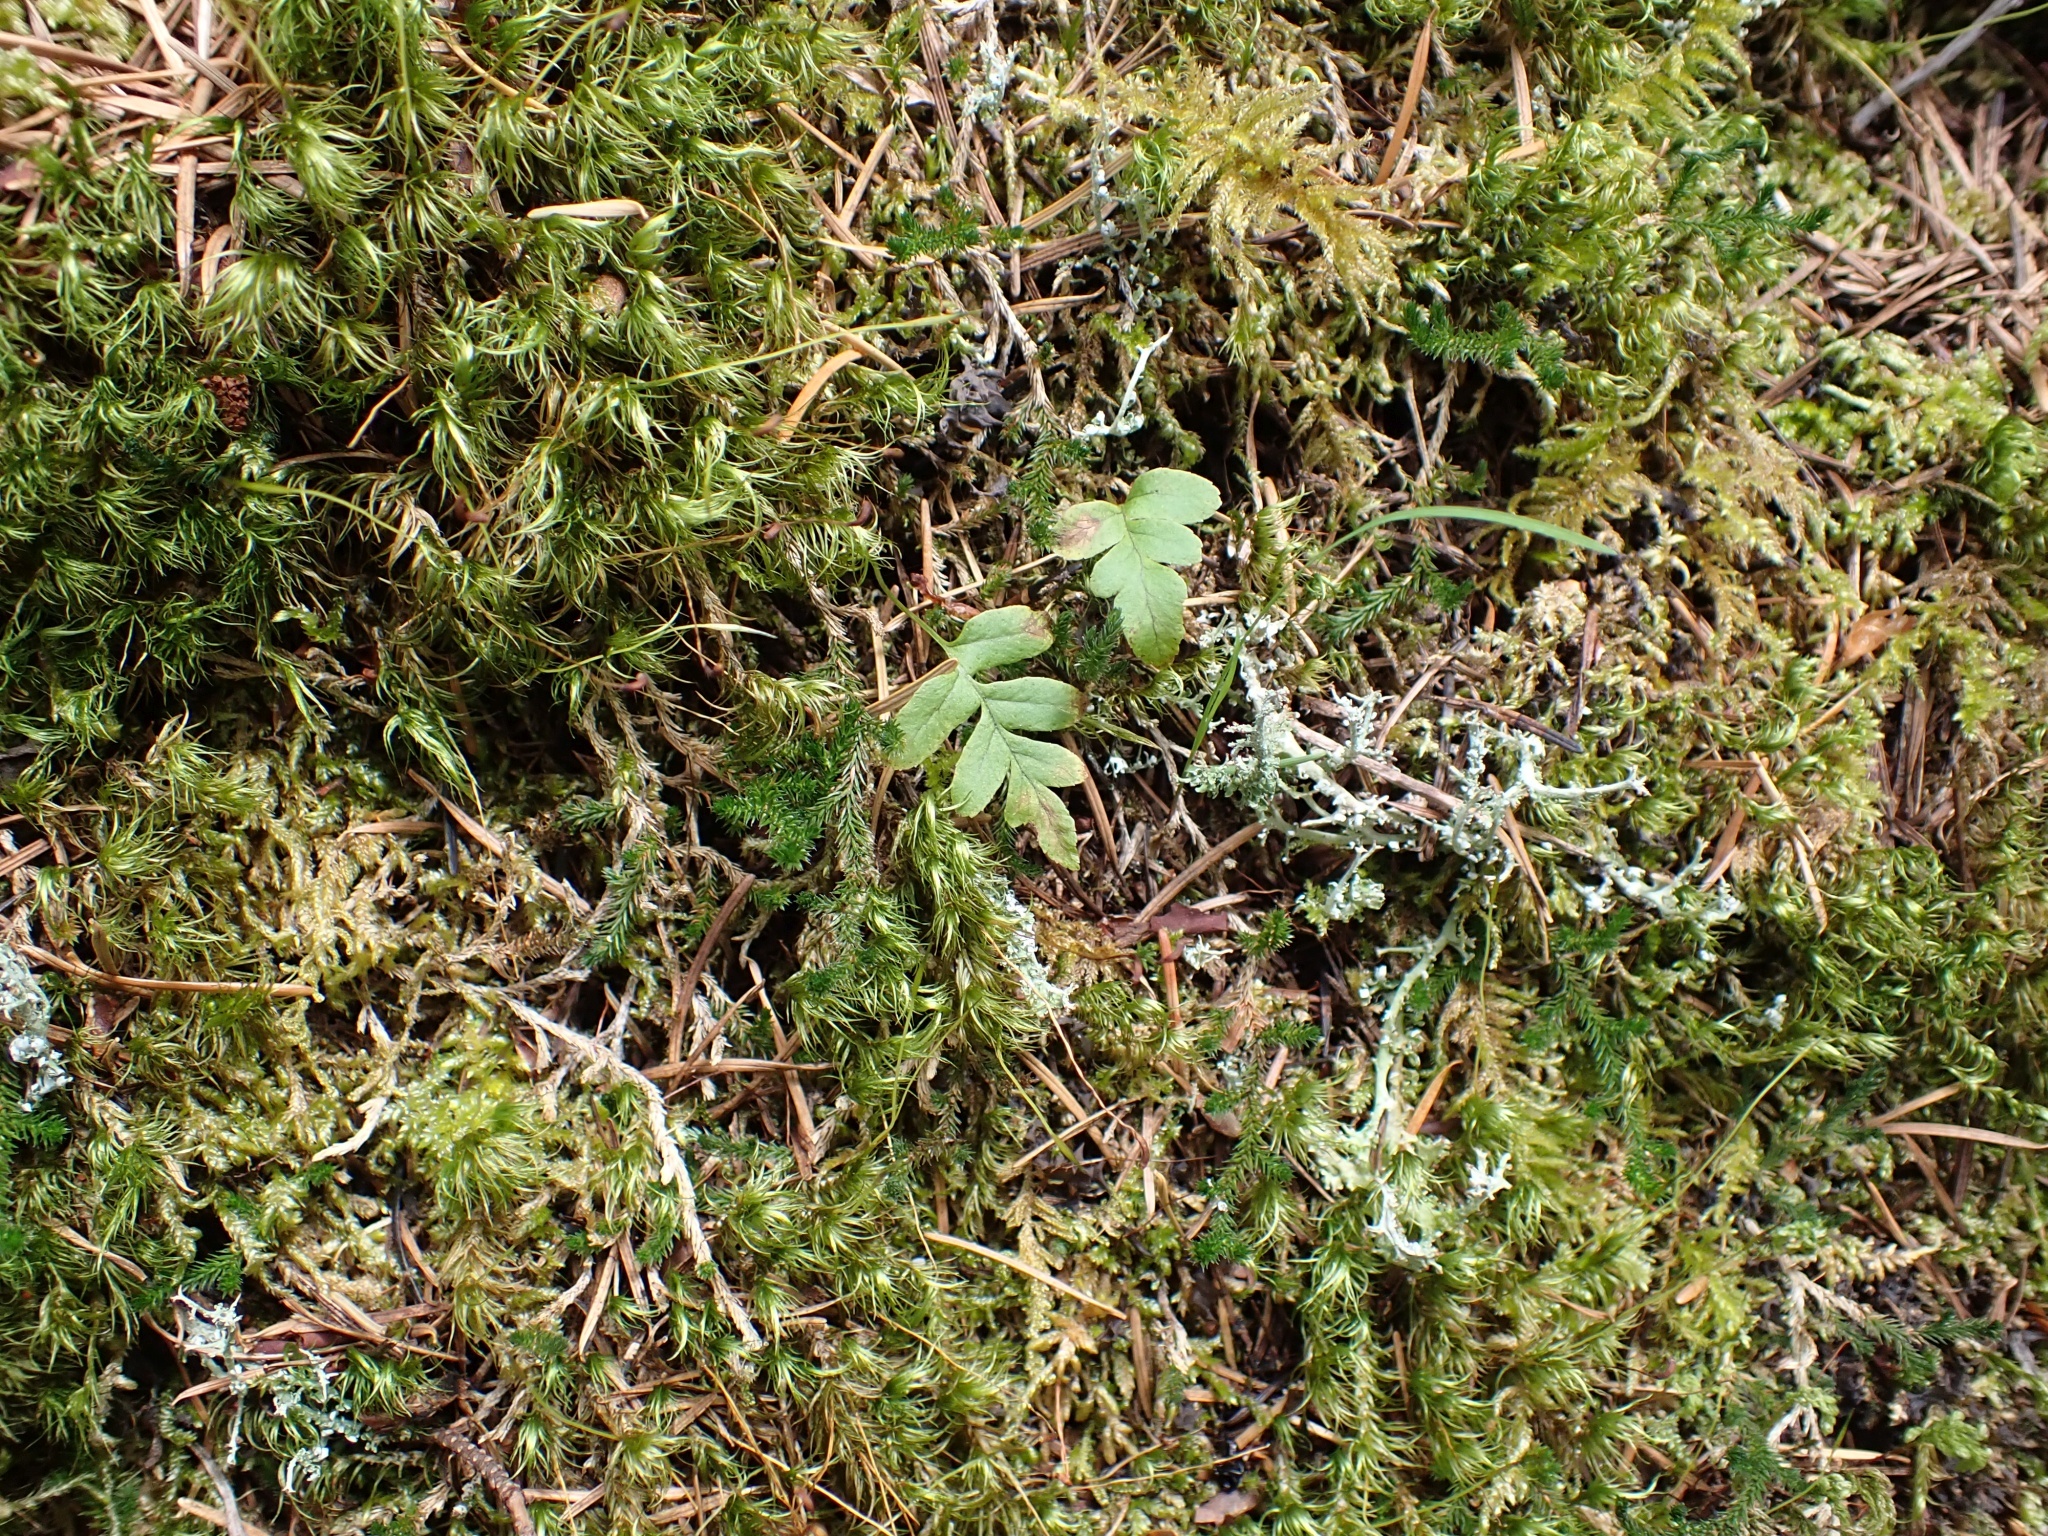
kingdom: Plantae
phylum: Tracheophyta
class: Polypodiopsida
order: Polypodiales
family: Polypodiaceae
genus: Polypodium
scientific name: Polypodium glycyrrhiza
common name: Licorice fern
